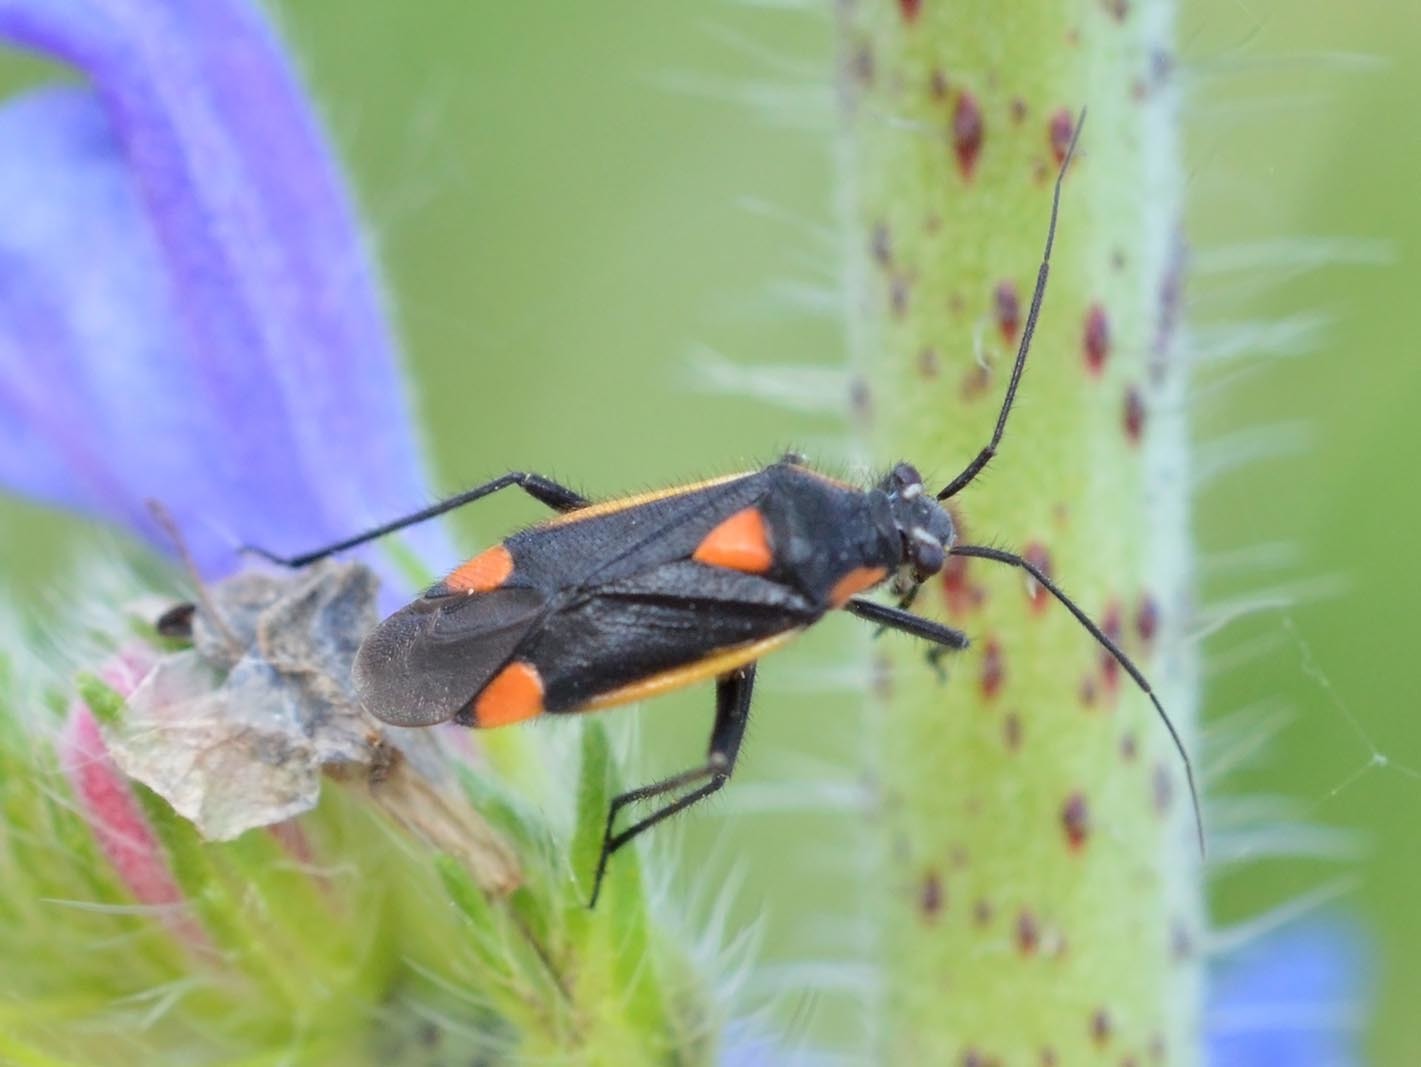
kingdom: Animalia
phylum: Arthropoda
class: Insecta
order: Hemiptera
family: Miridae
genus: Capsodes
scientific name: Capsodes gothicus
